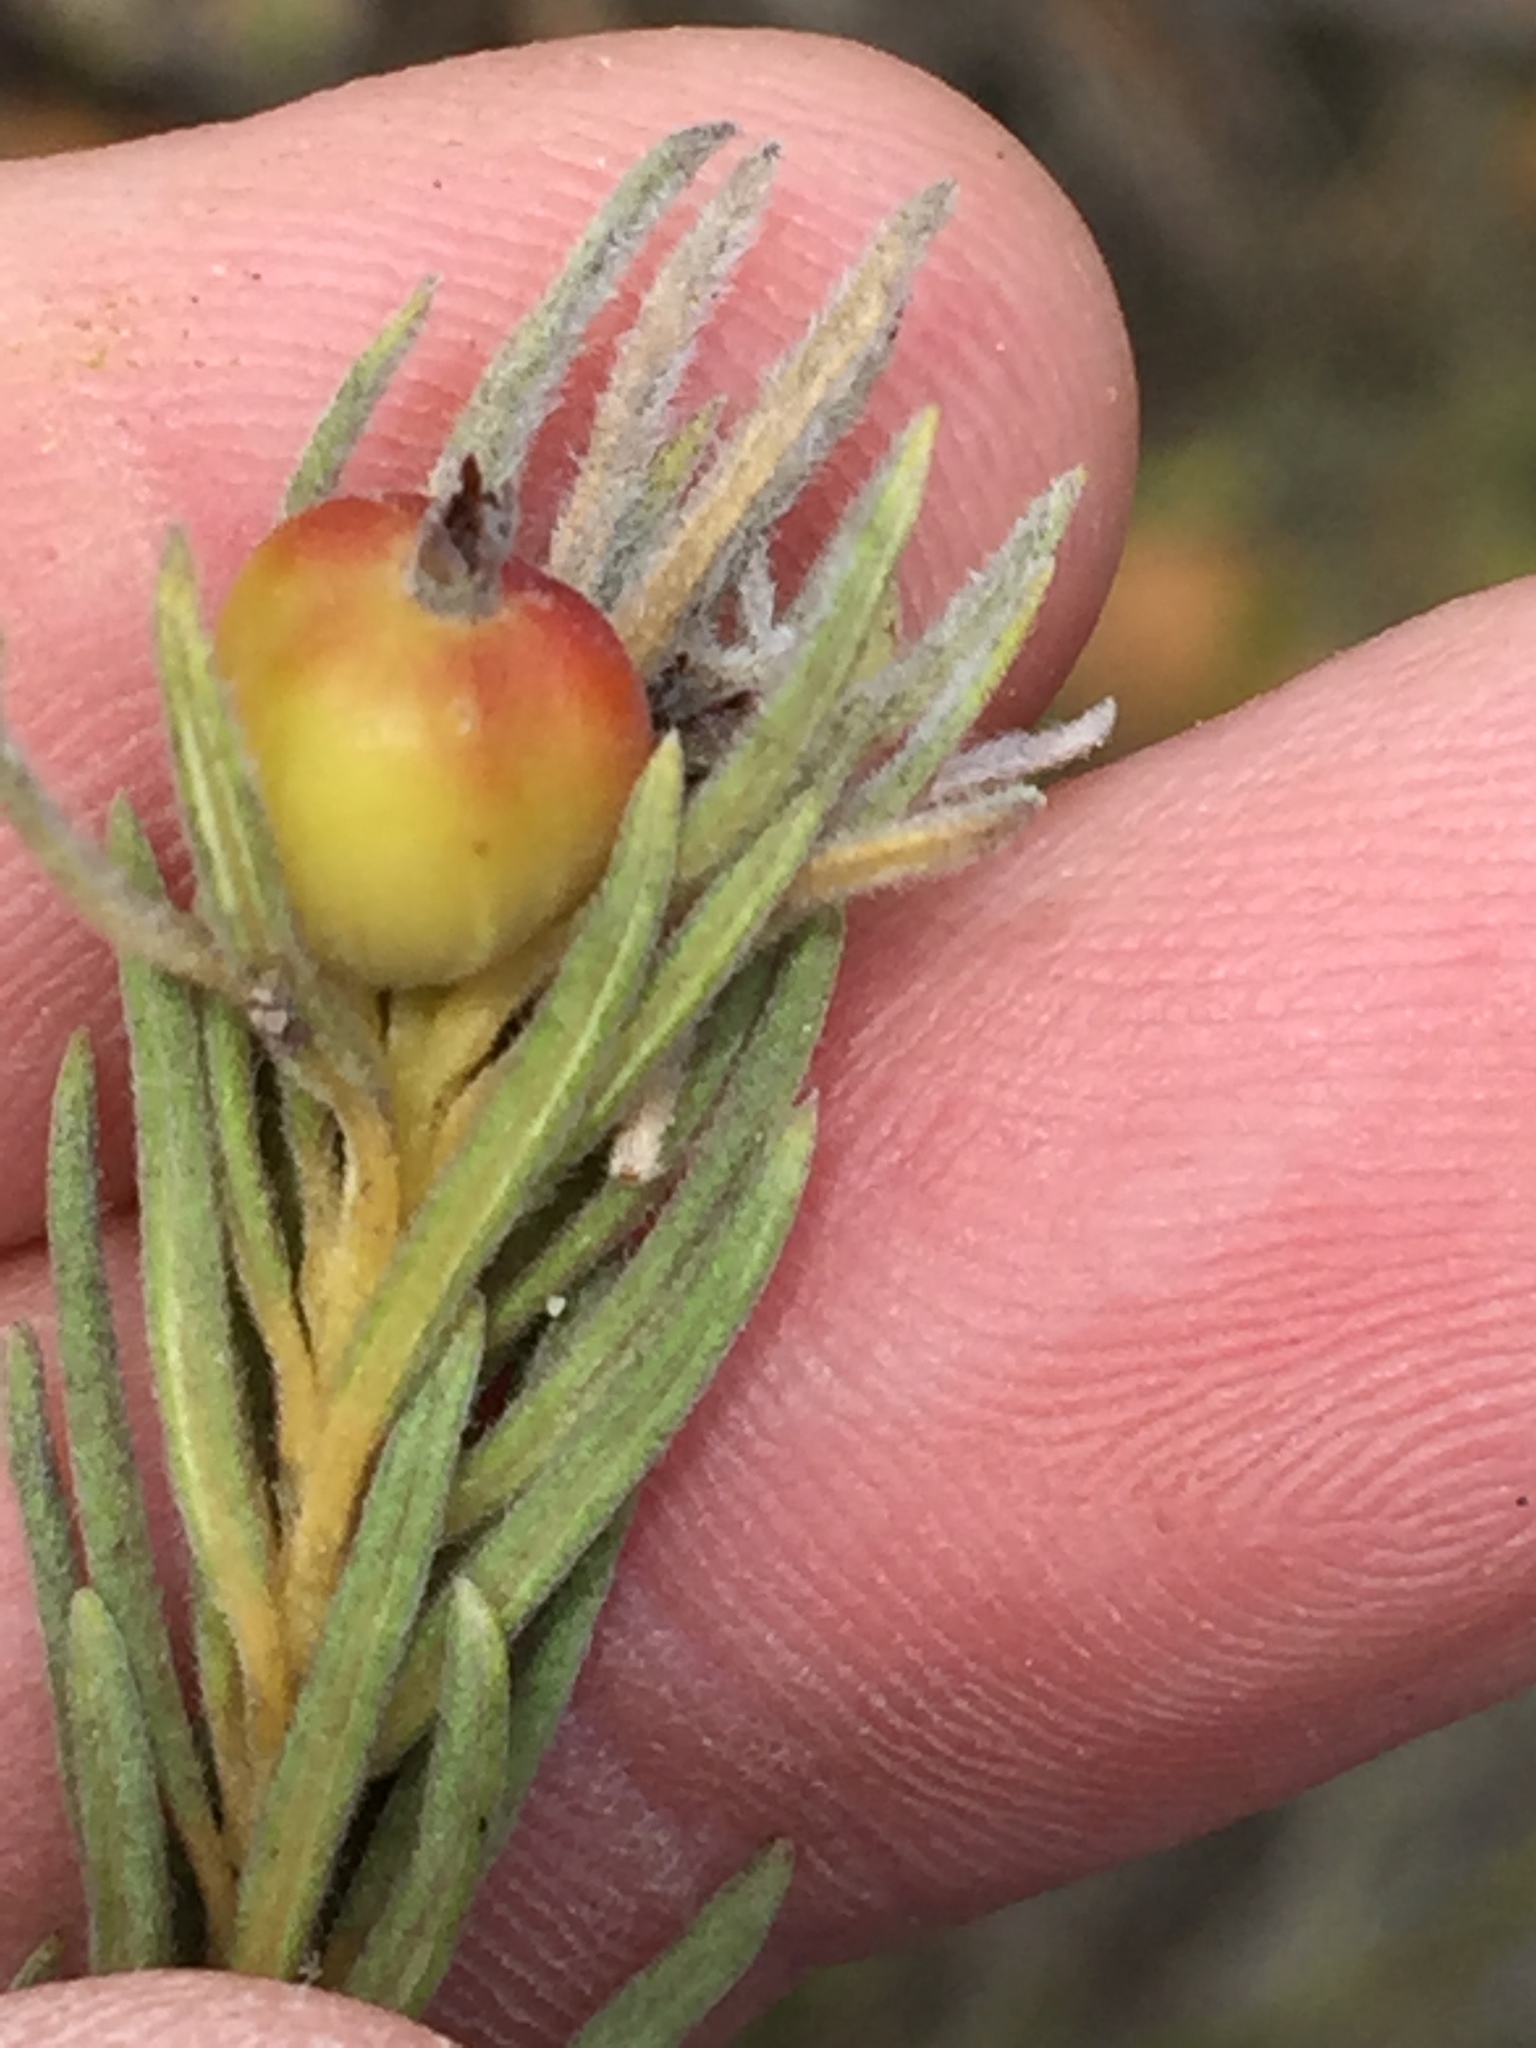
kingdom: Plantae
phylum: Tracheophyta
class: Magnoliopsida
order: Rosales
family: Rhamnaceae
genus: Phylica
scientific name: Phylica velutina
